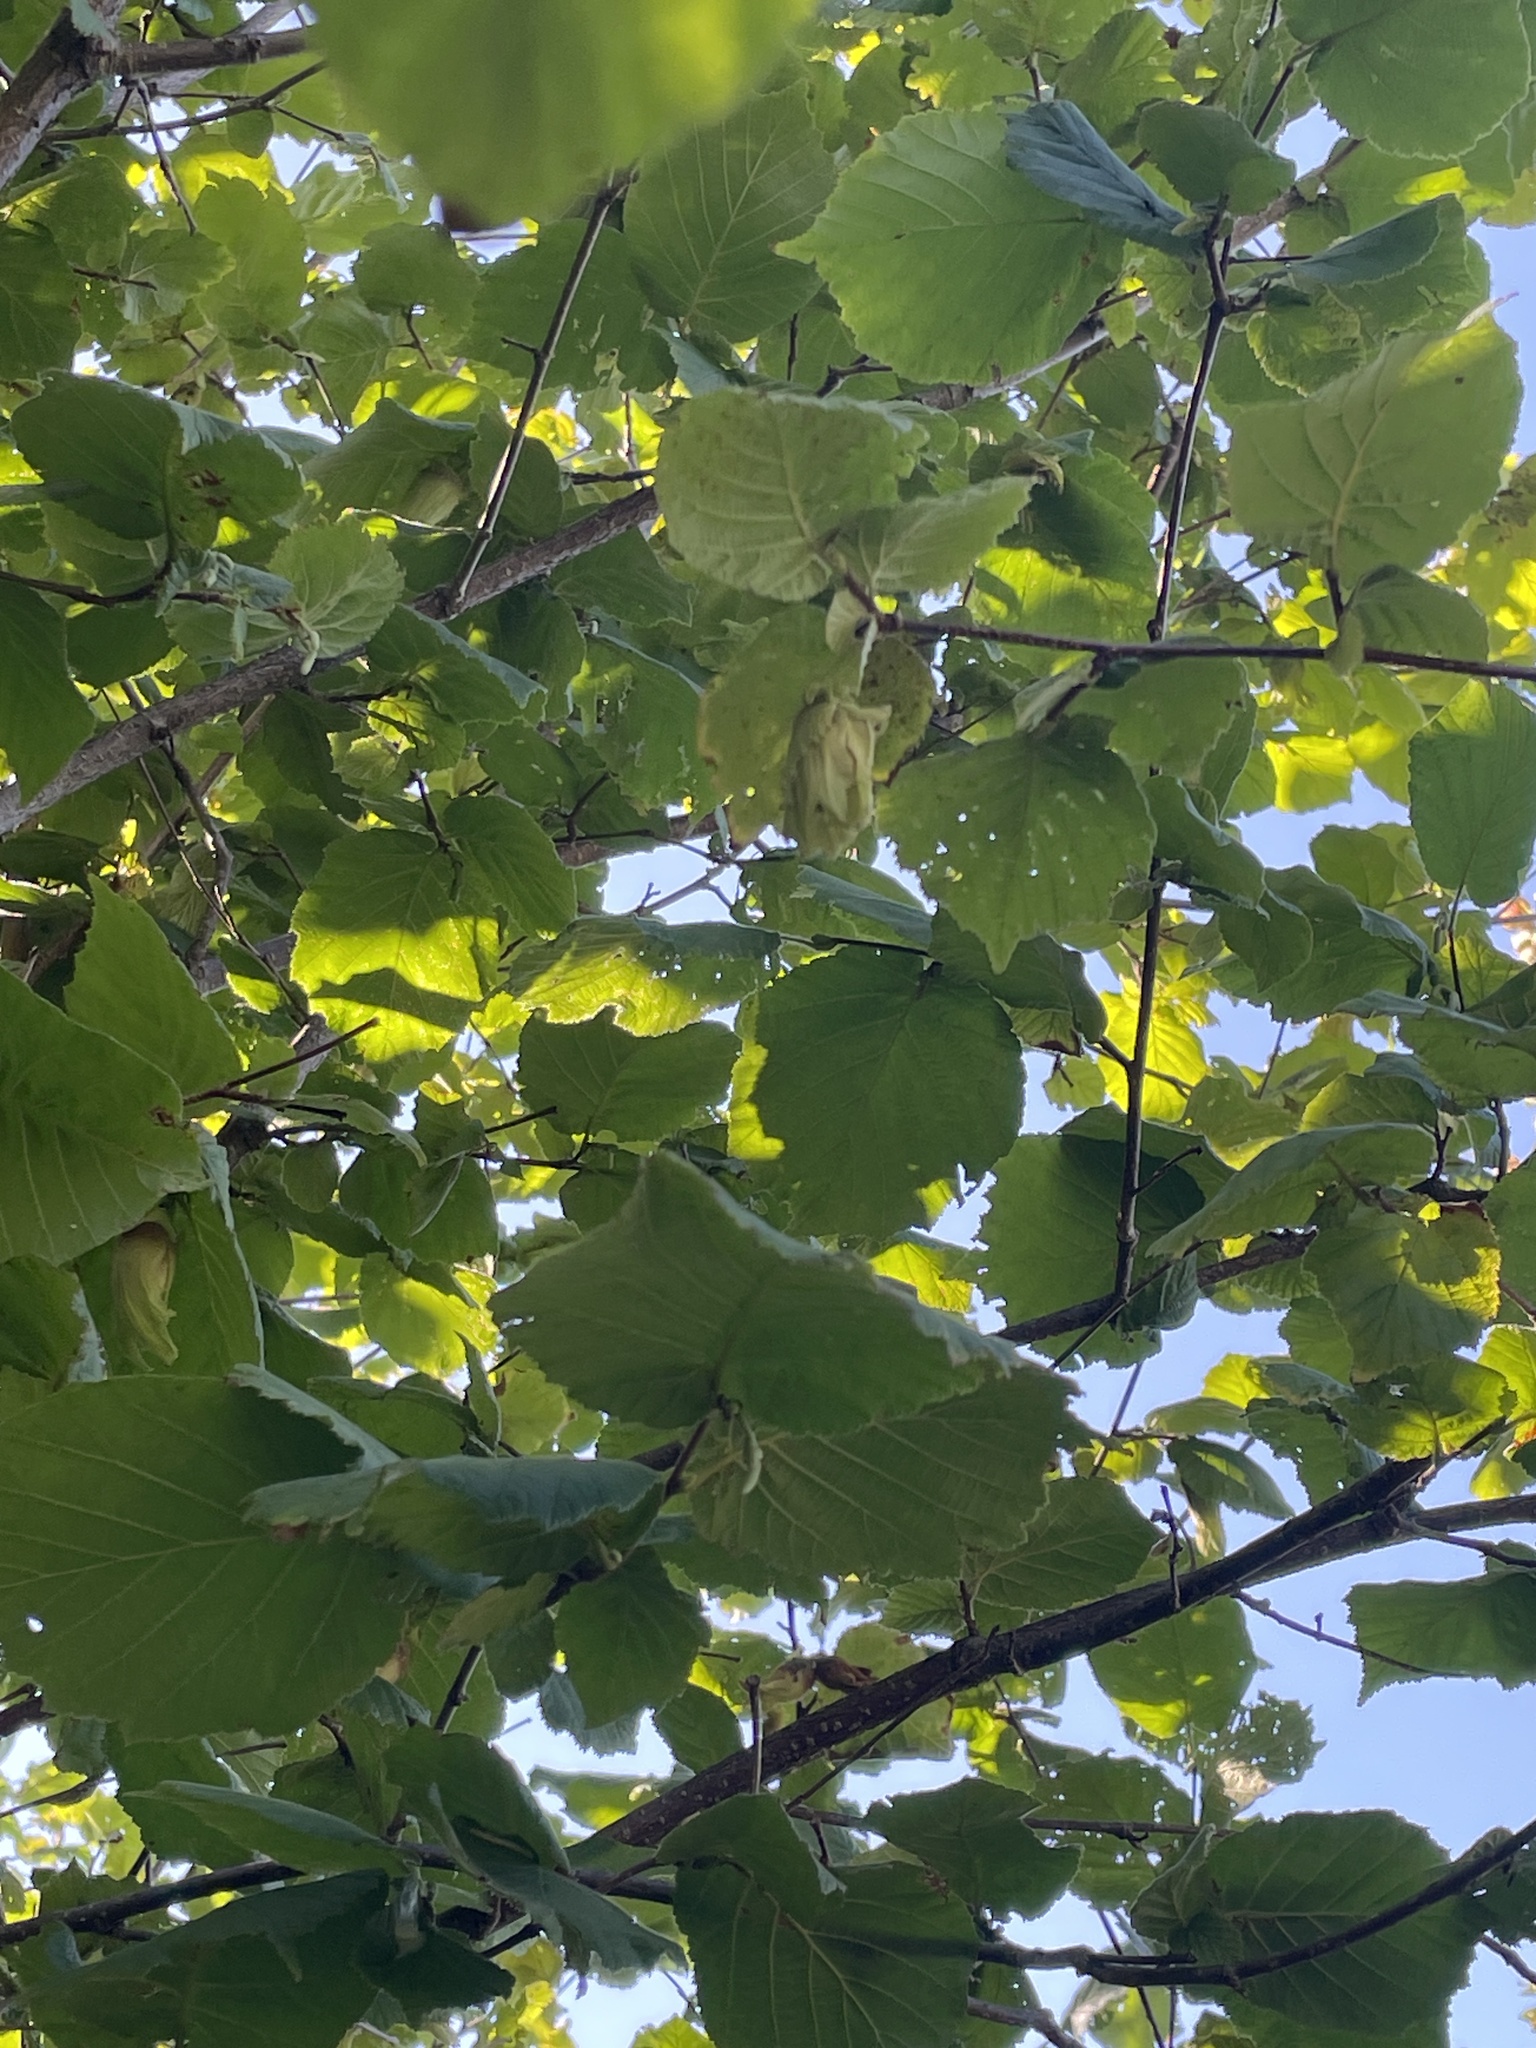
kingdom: Plantae
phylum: Tracheophyta
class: Magnoliopsida
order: Fagales
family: Betulaceae
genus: Corylus
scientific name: Corylus avellana
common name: European hazel
